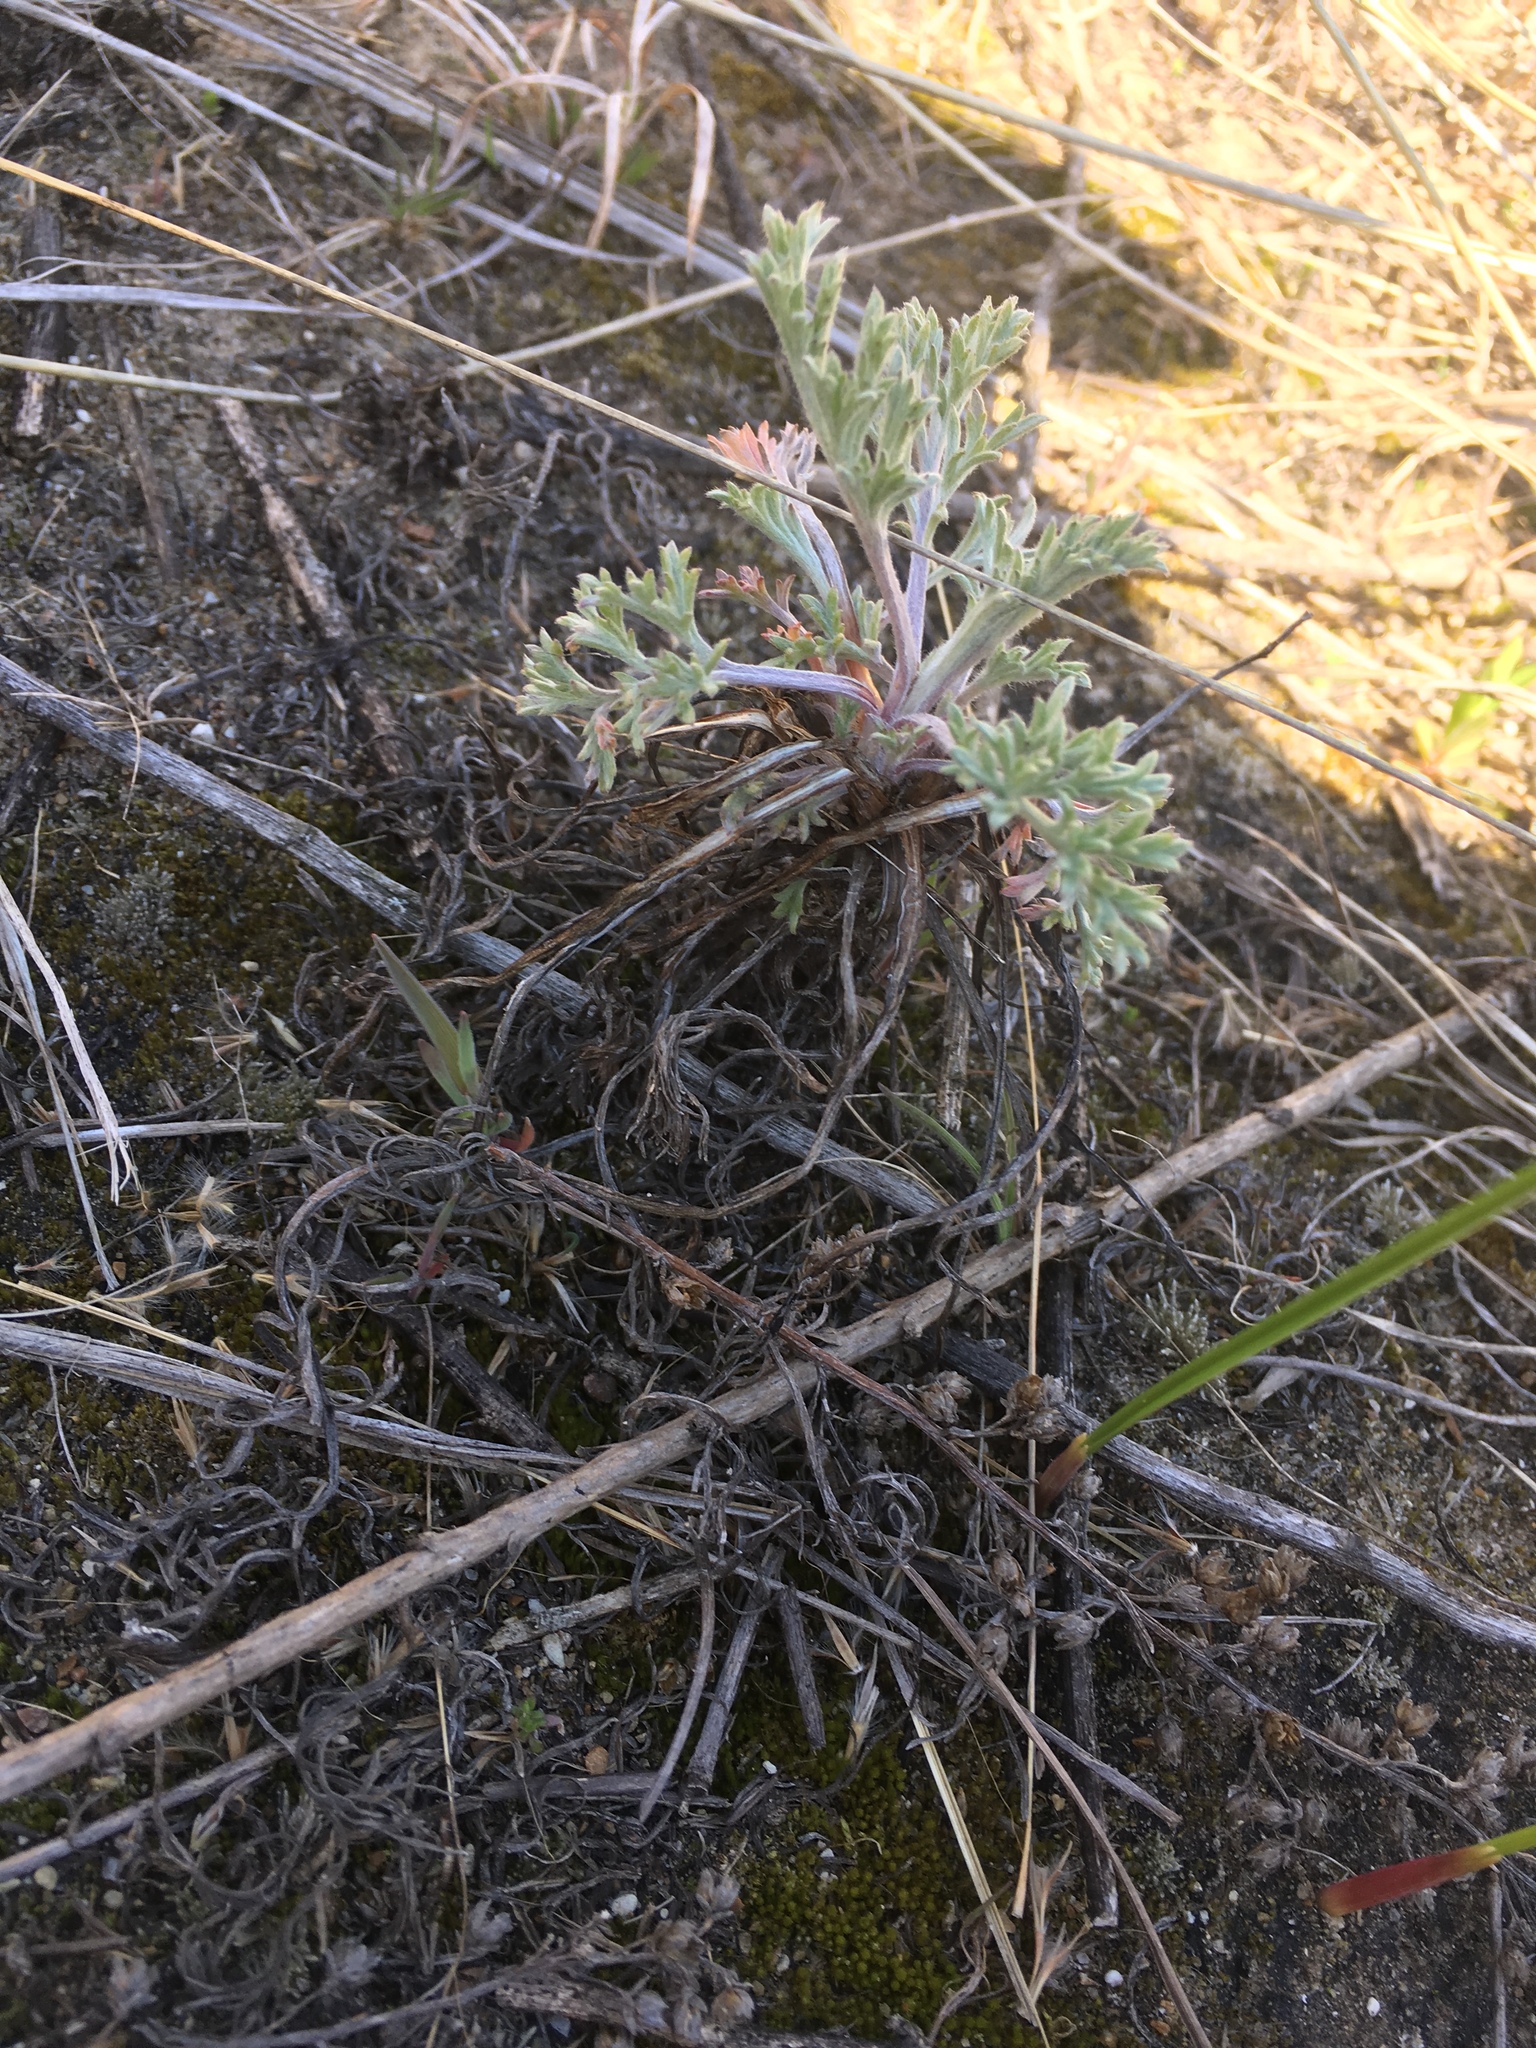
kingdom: Plantae
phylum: Tracheophyta
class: Magnoliopsida
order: Asterales
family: Asteraceae
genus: Artemisia
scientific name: Artemisia campestris
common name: Field wormwood
